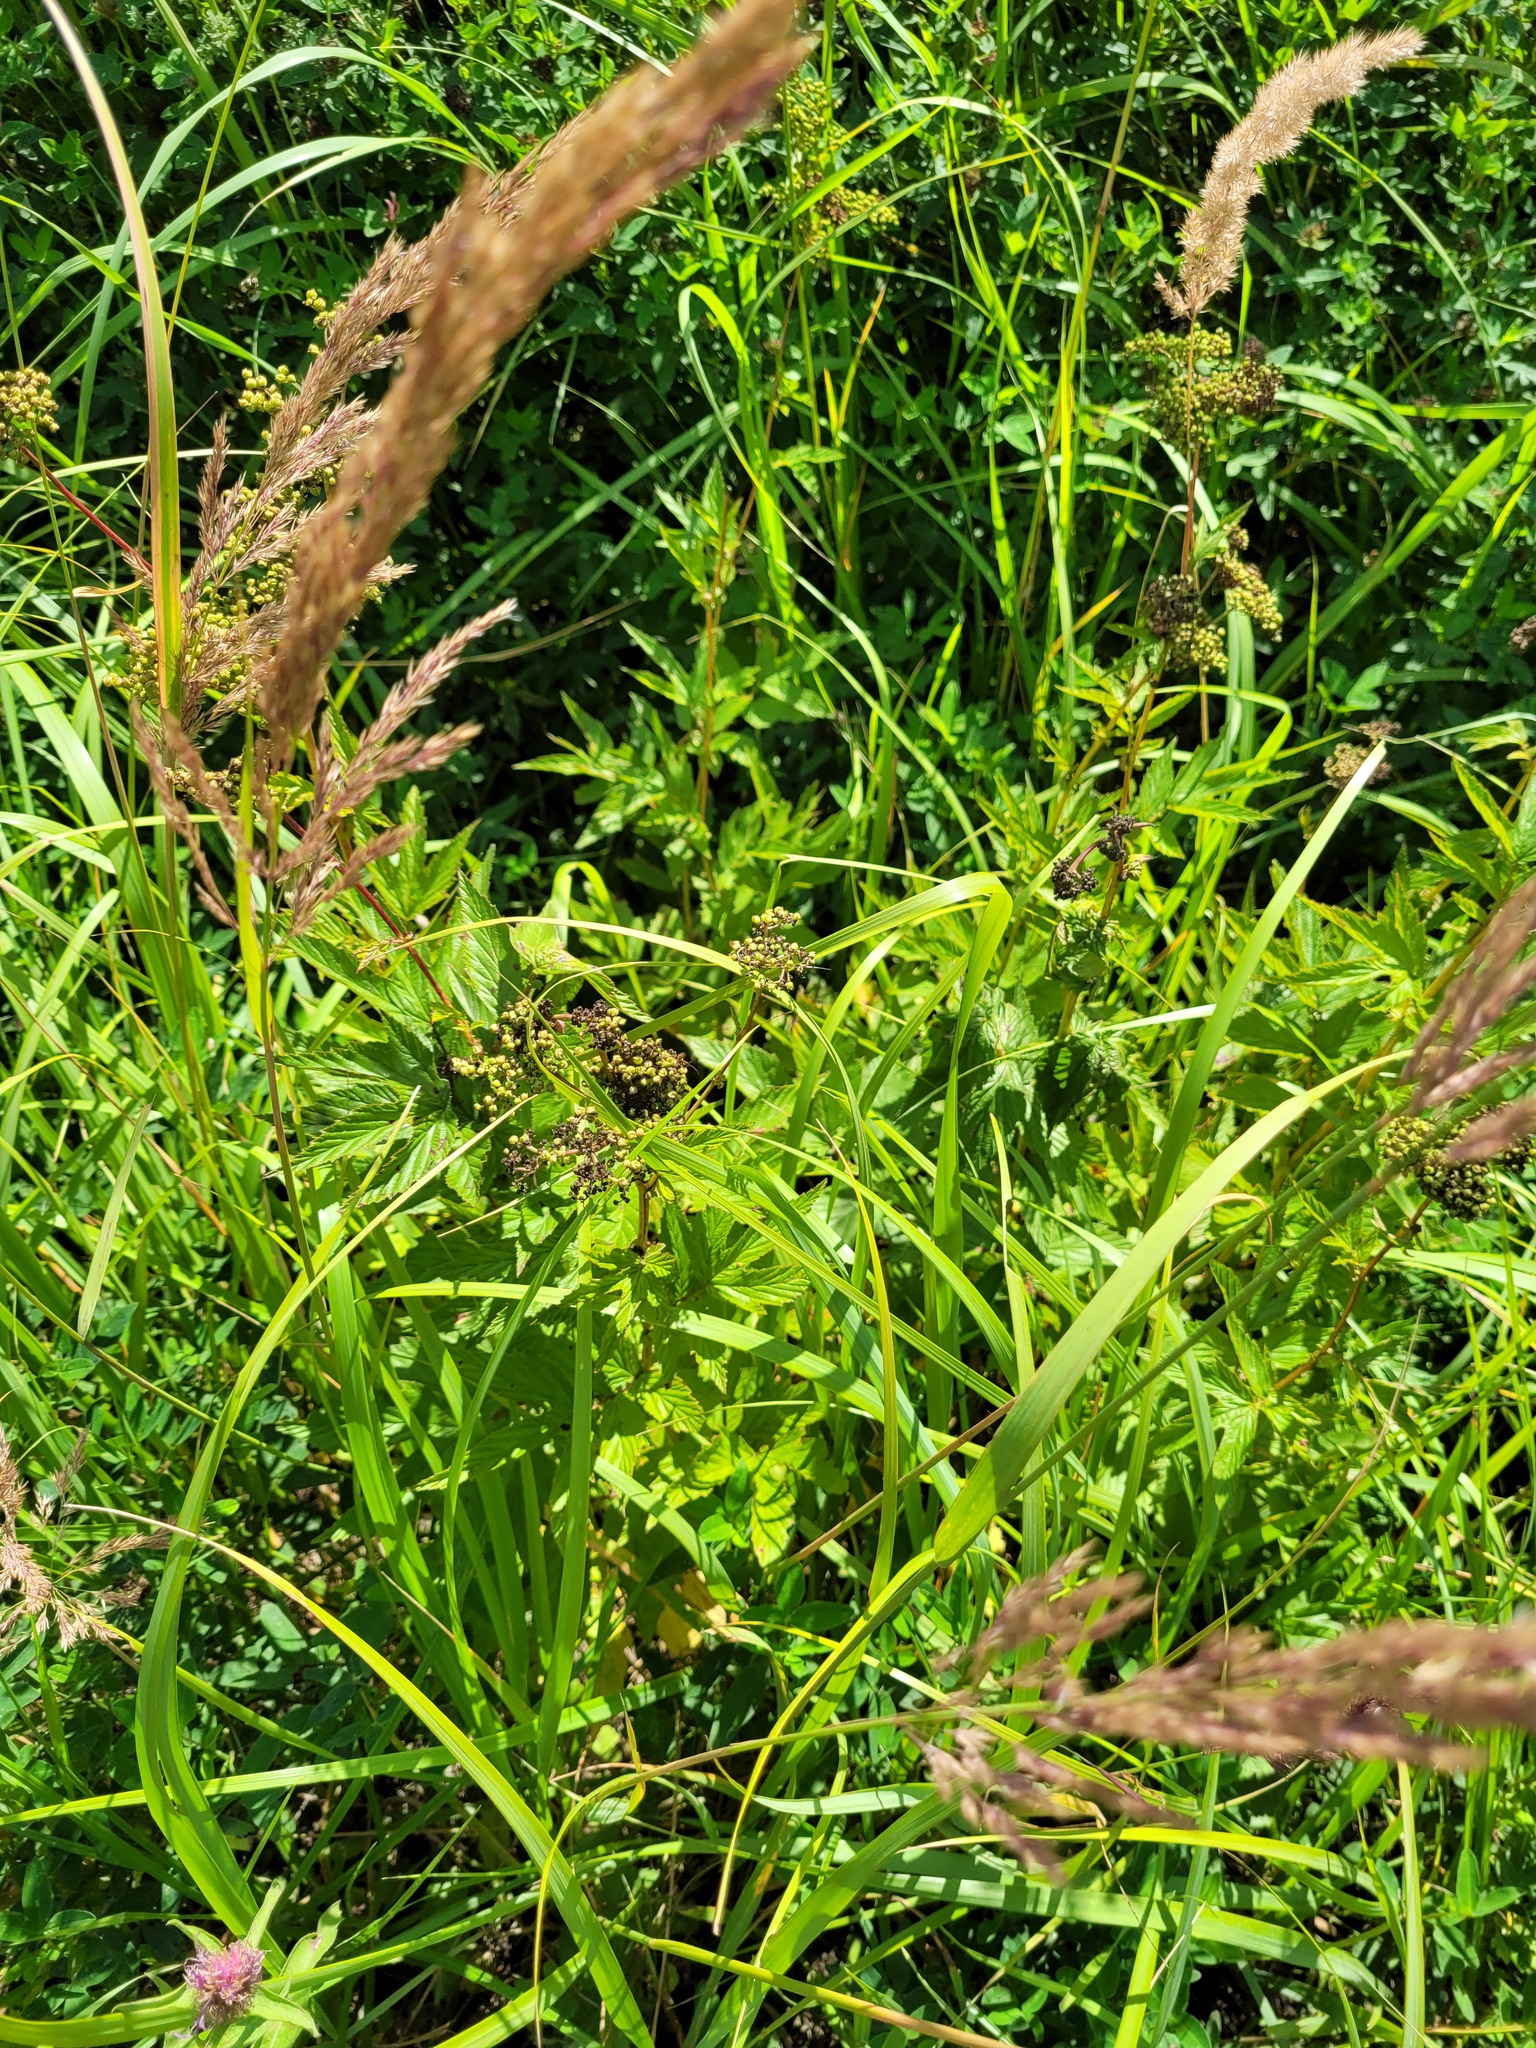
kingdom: Plantae
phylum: Tracheophyta
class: Magnoliopsida
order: Rosales
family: Rosaceae
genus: Filipendula
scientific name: Filipendula ulmaria
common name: Meadowsweet
